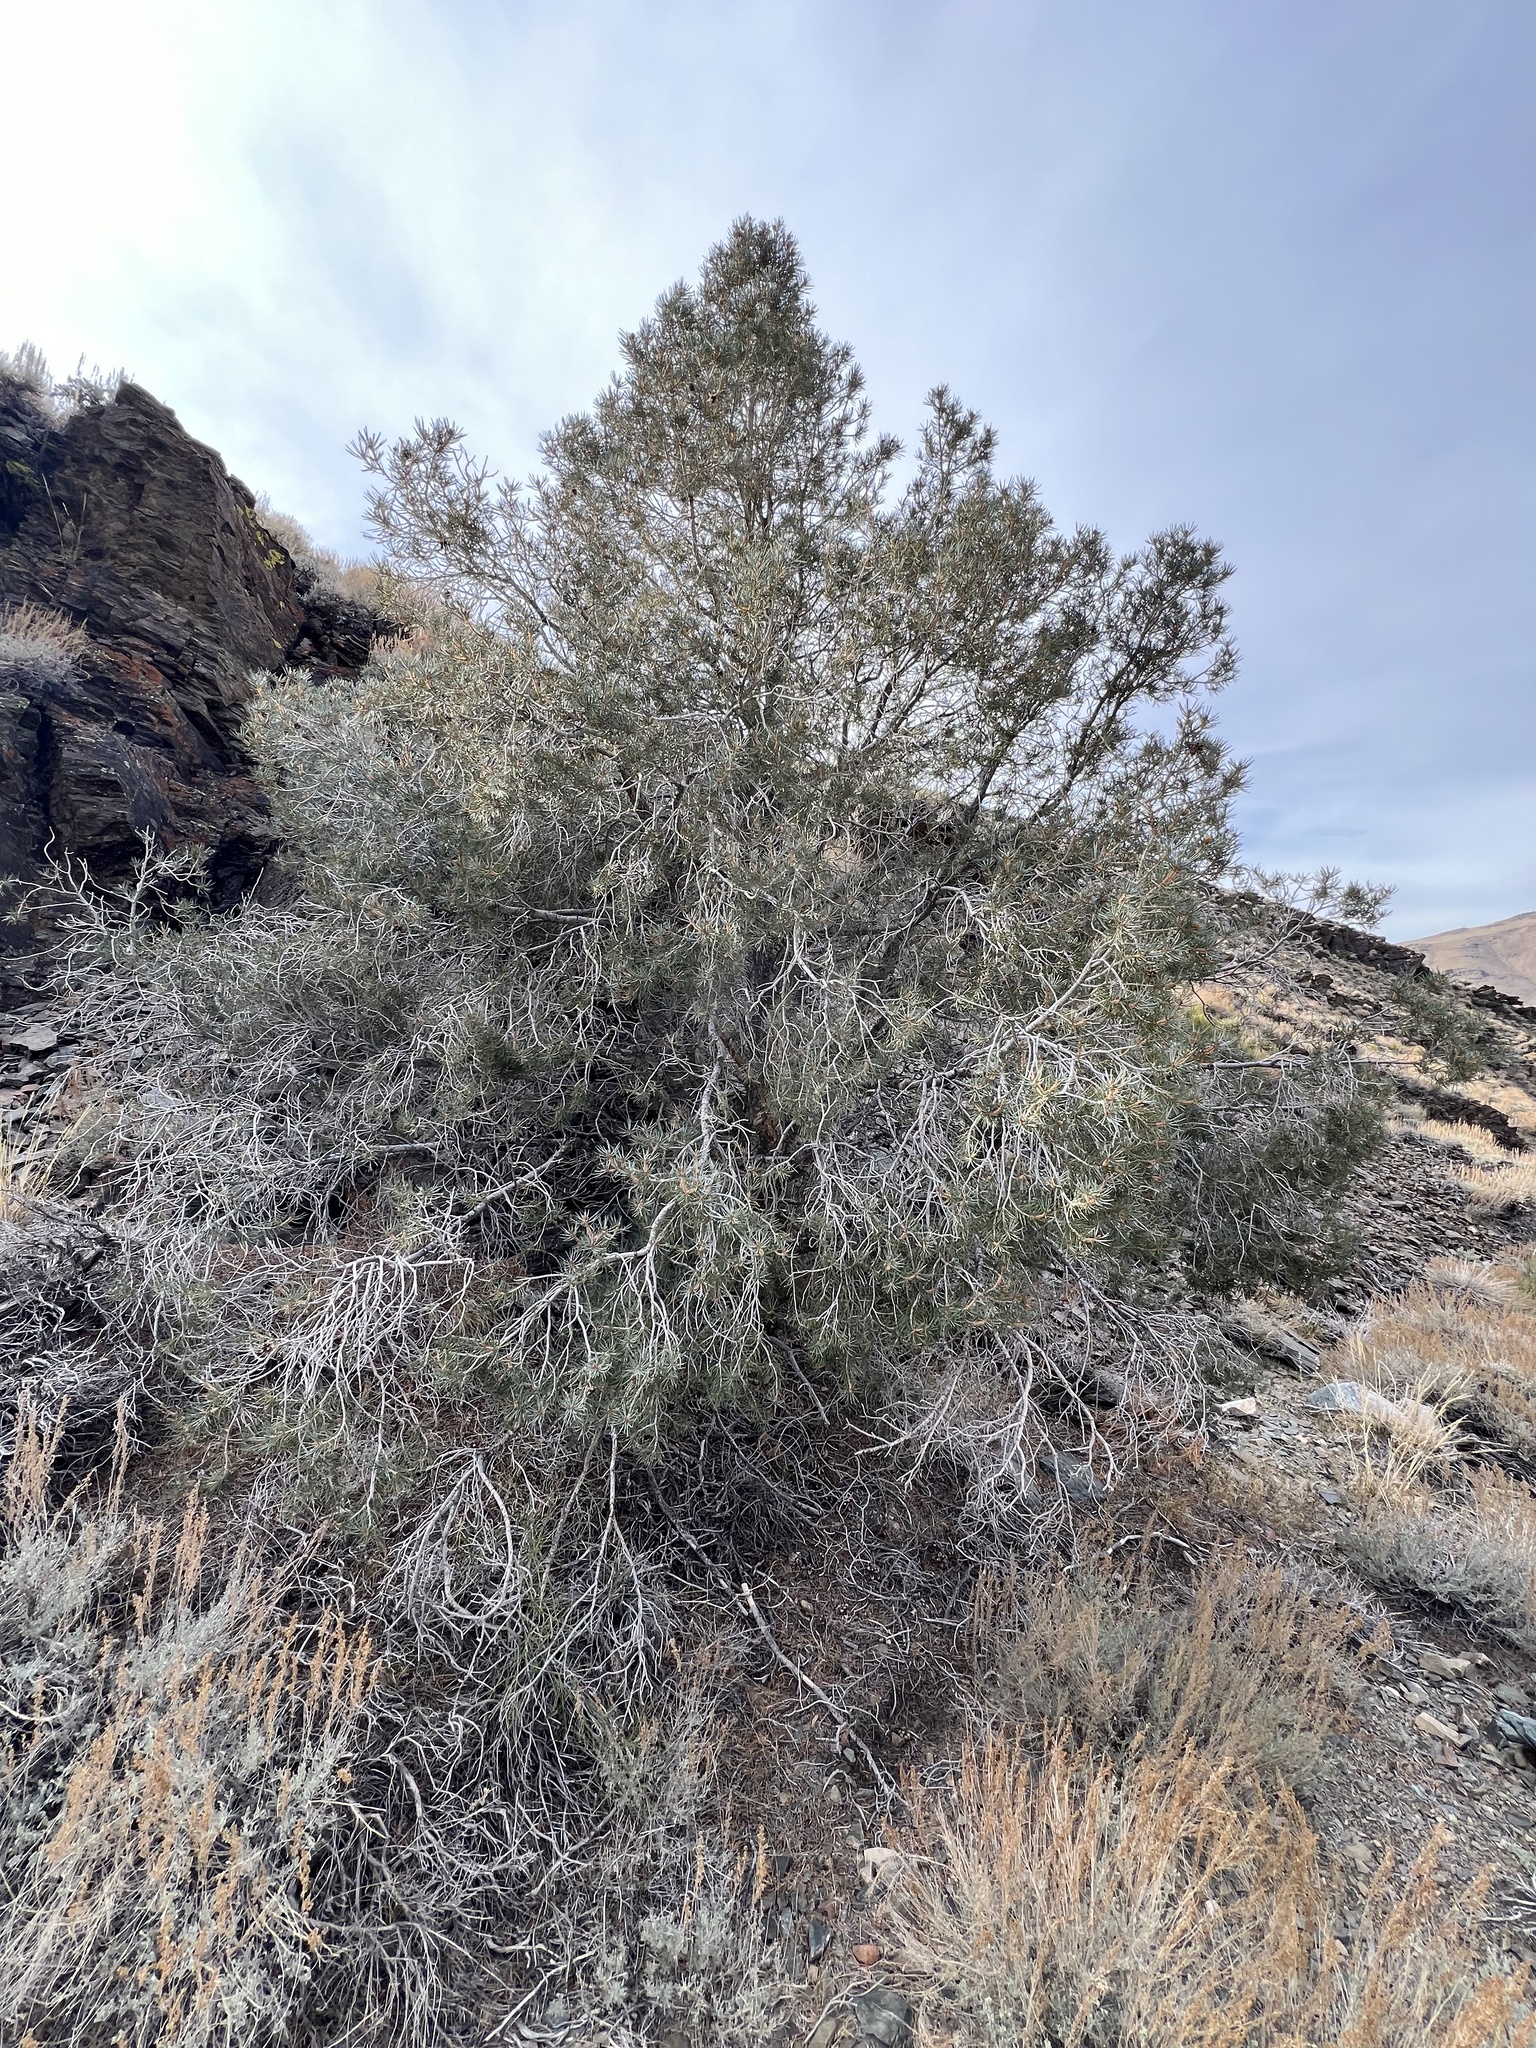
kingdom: Plantae
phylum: Tracheophyta
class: Pinopsida
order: Pinales
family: Pinaceae
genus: Pinus
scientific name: Pinus monophylla
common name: One-leaved nut pine
